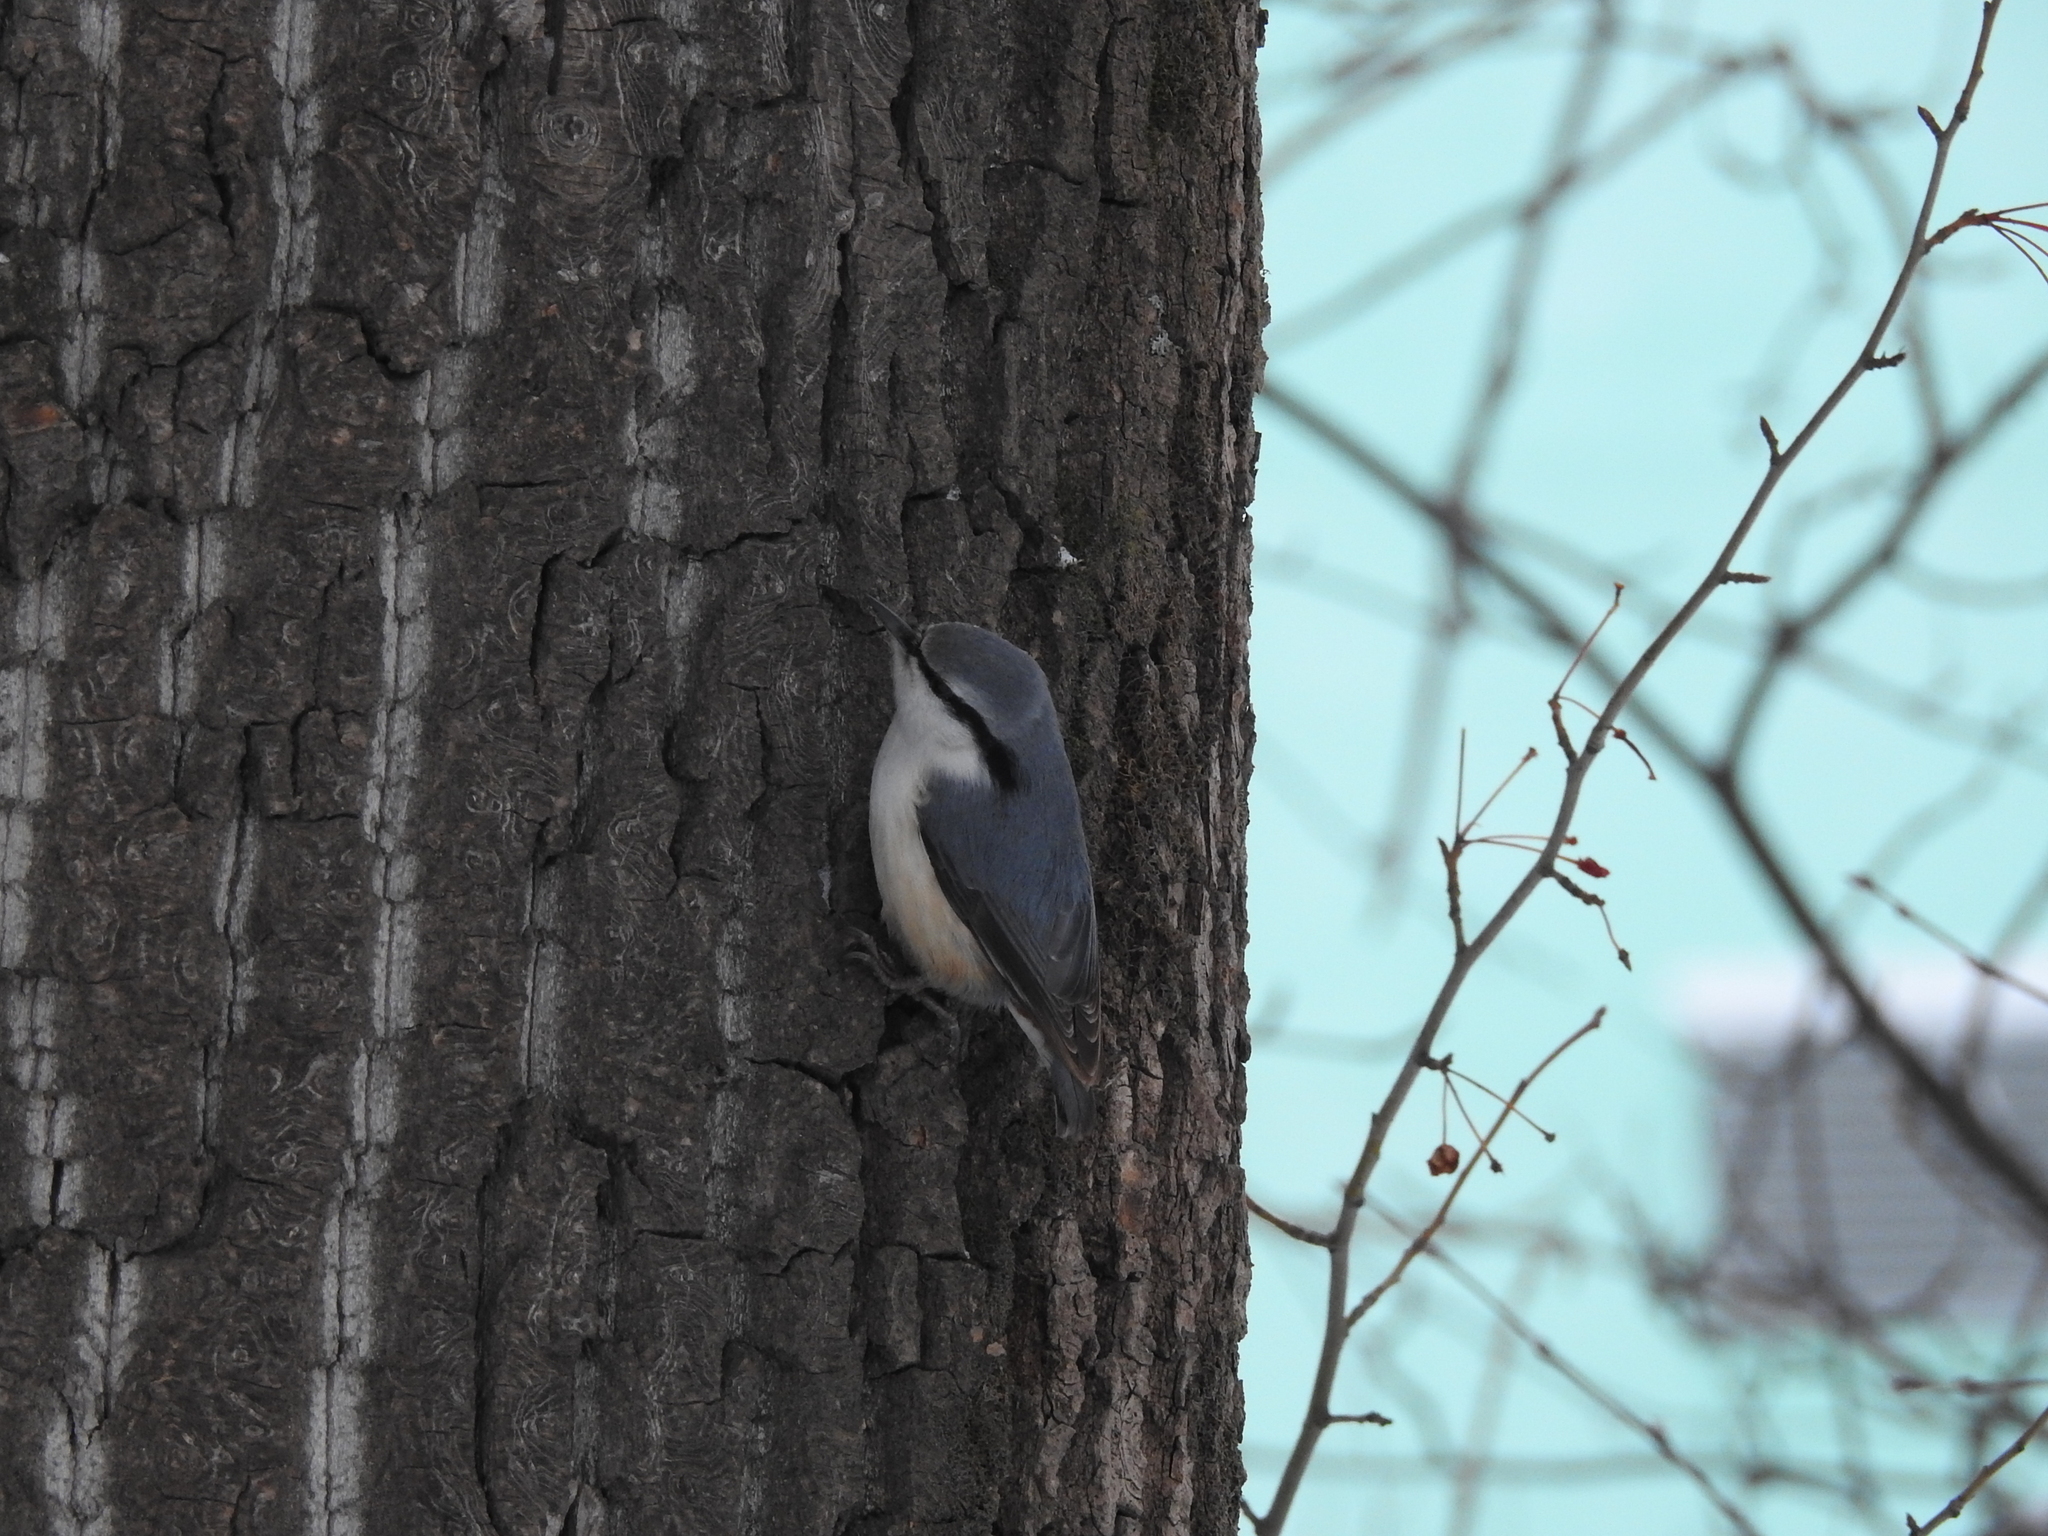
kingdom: Animalia
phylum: Chordata
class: Aves
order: Passeriformes
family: Sittidae
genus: Sitta
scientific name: Sitta europaea
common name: Eurasian nuthatch
